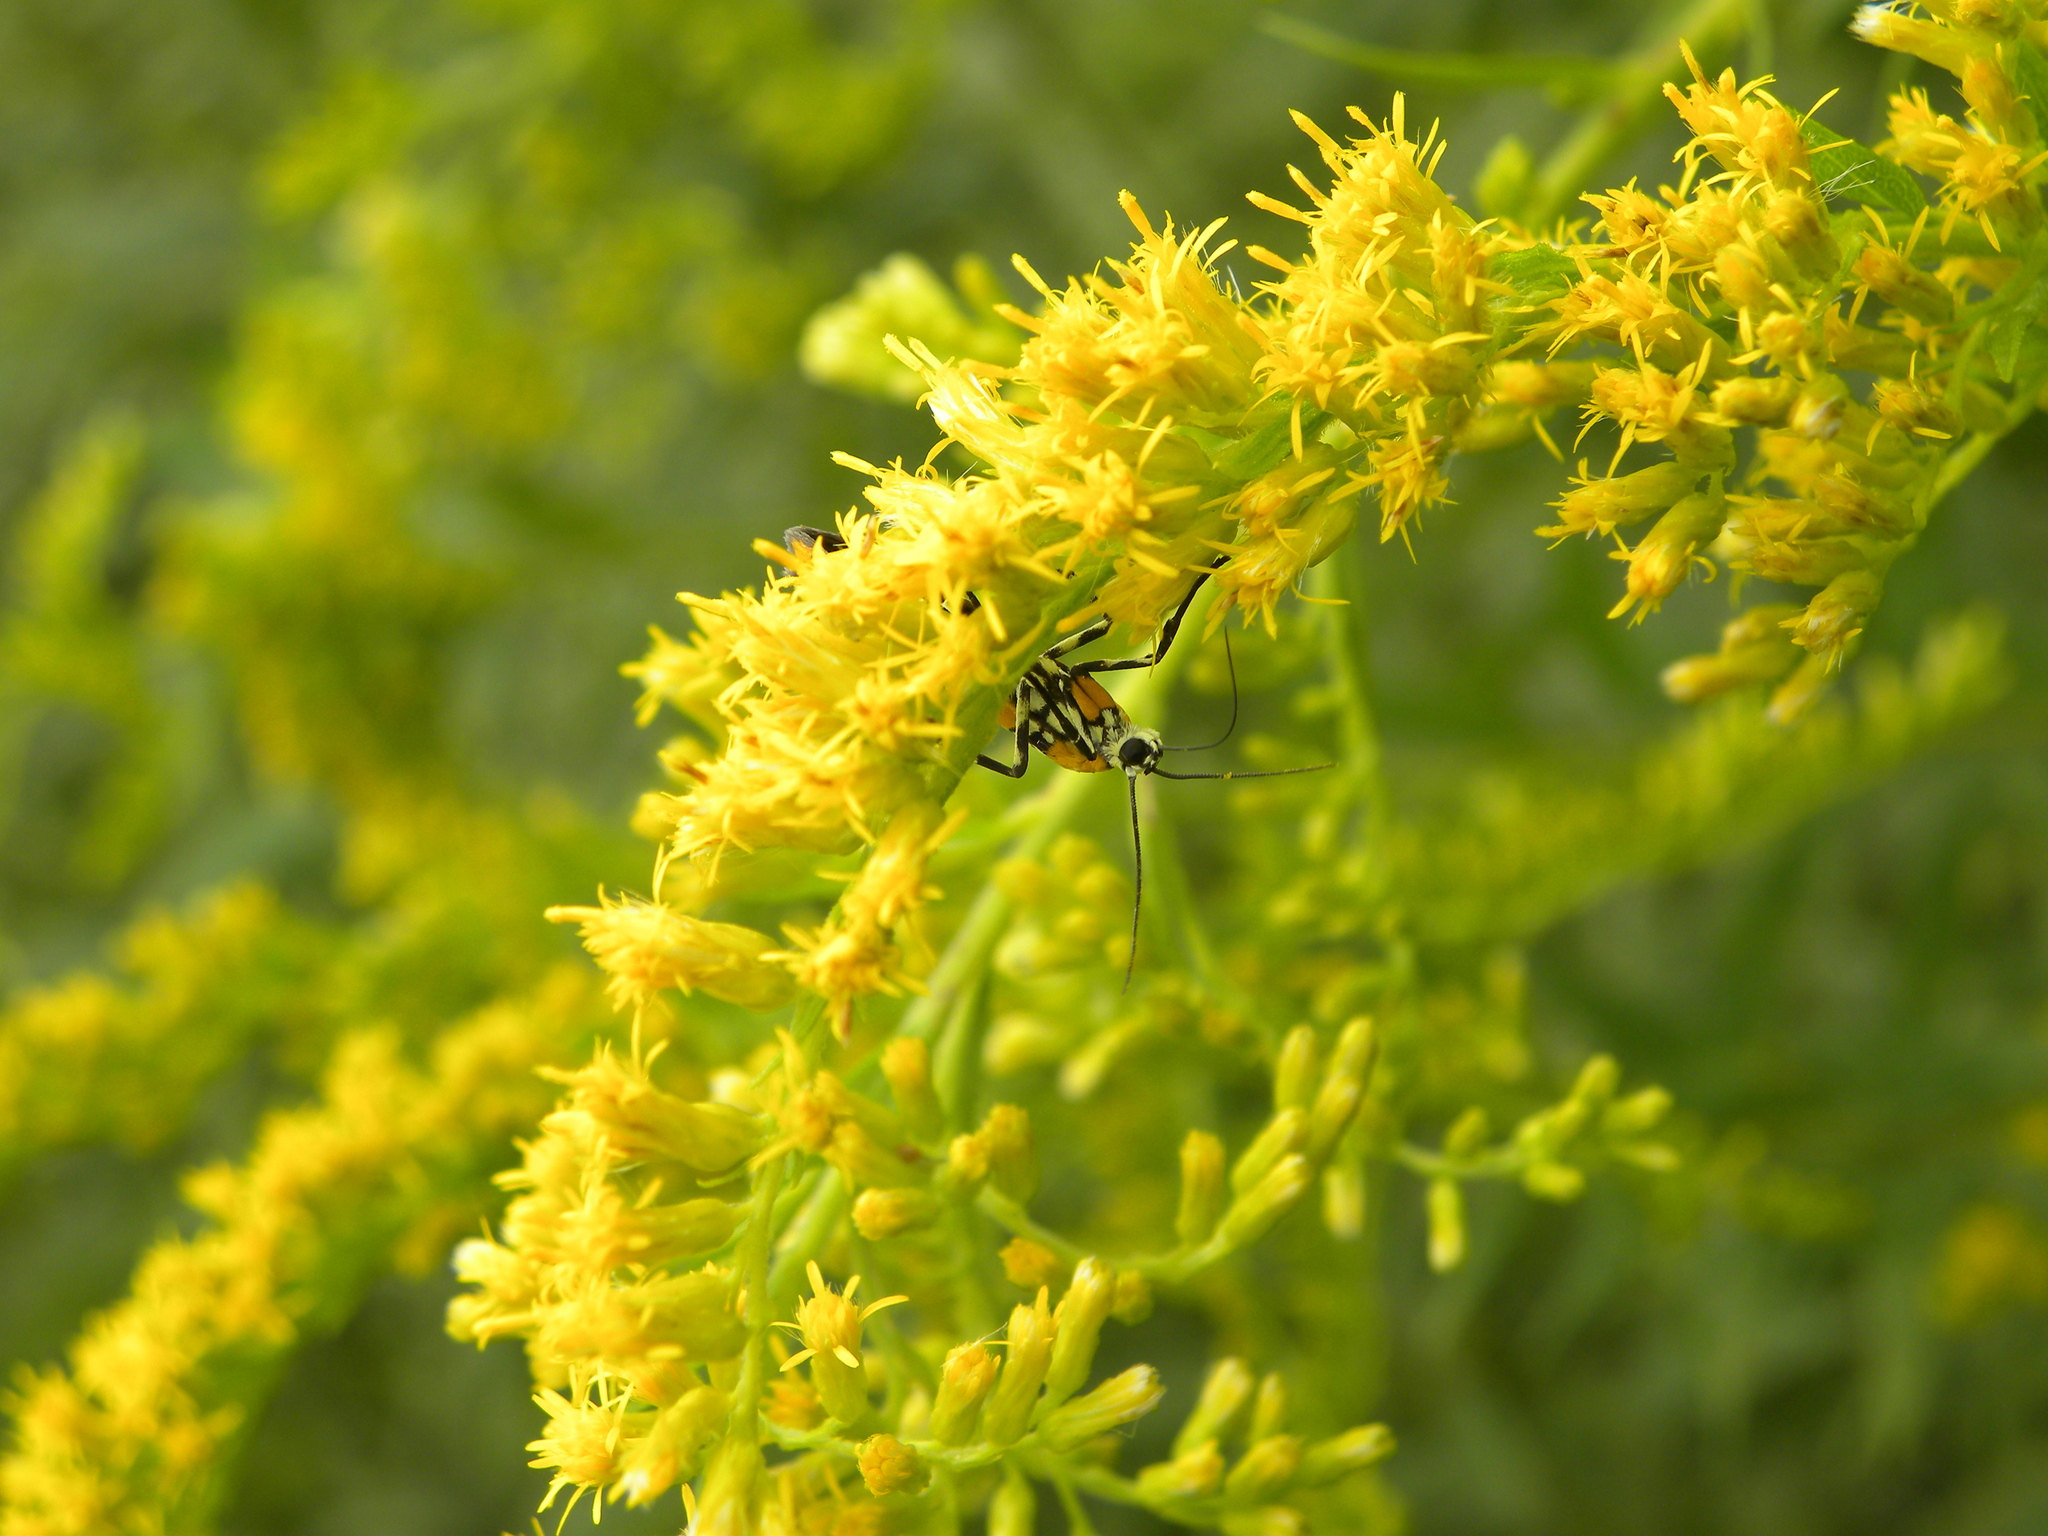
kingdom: Animalia
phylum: Arthropoda
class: Insecta
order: Lepidoptera
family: Attevidae
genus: Atteva
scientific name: Atteva punctella
